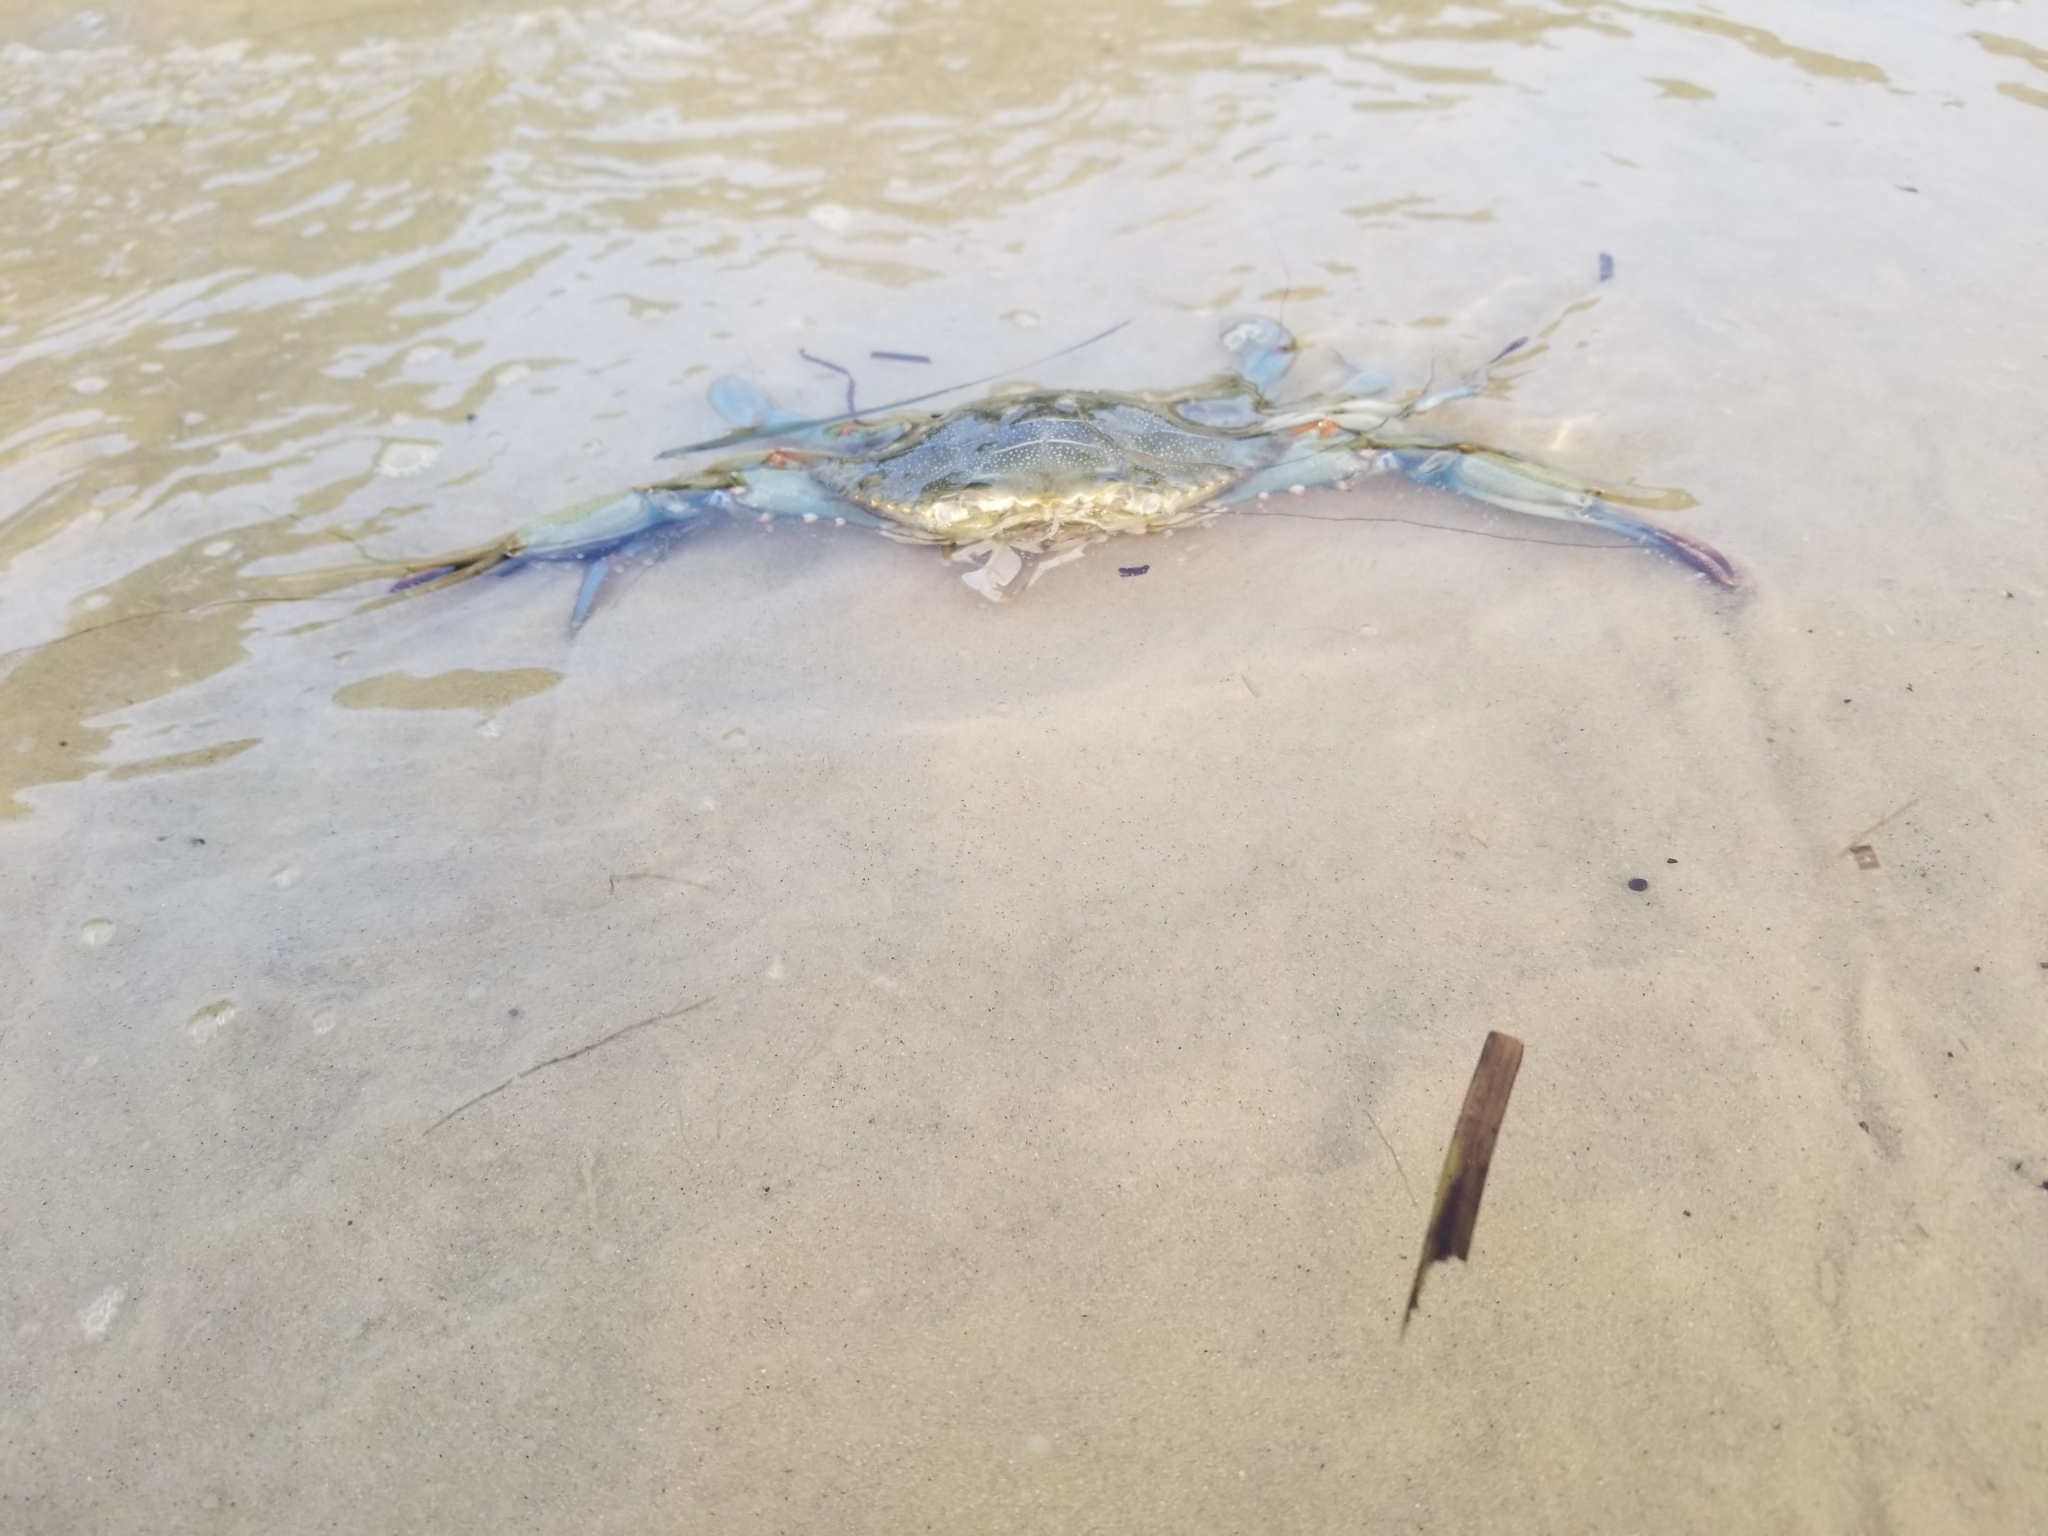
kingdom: Animalia
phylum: Arthropoda
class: Malacostraca
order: Decapoda
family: Portunidae
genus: Callinectes
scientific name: Callinectes sapidus
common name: Blue crab
